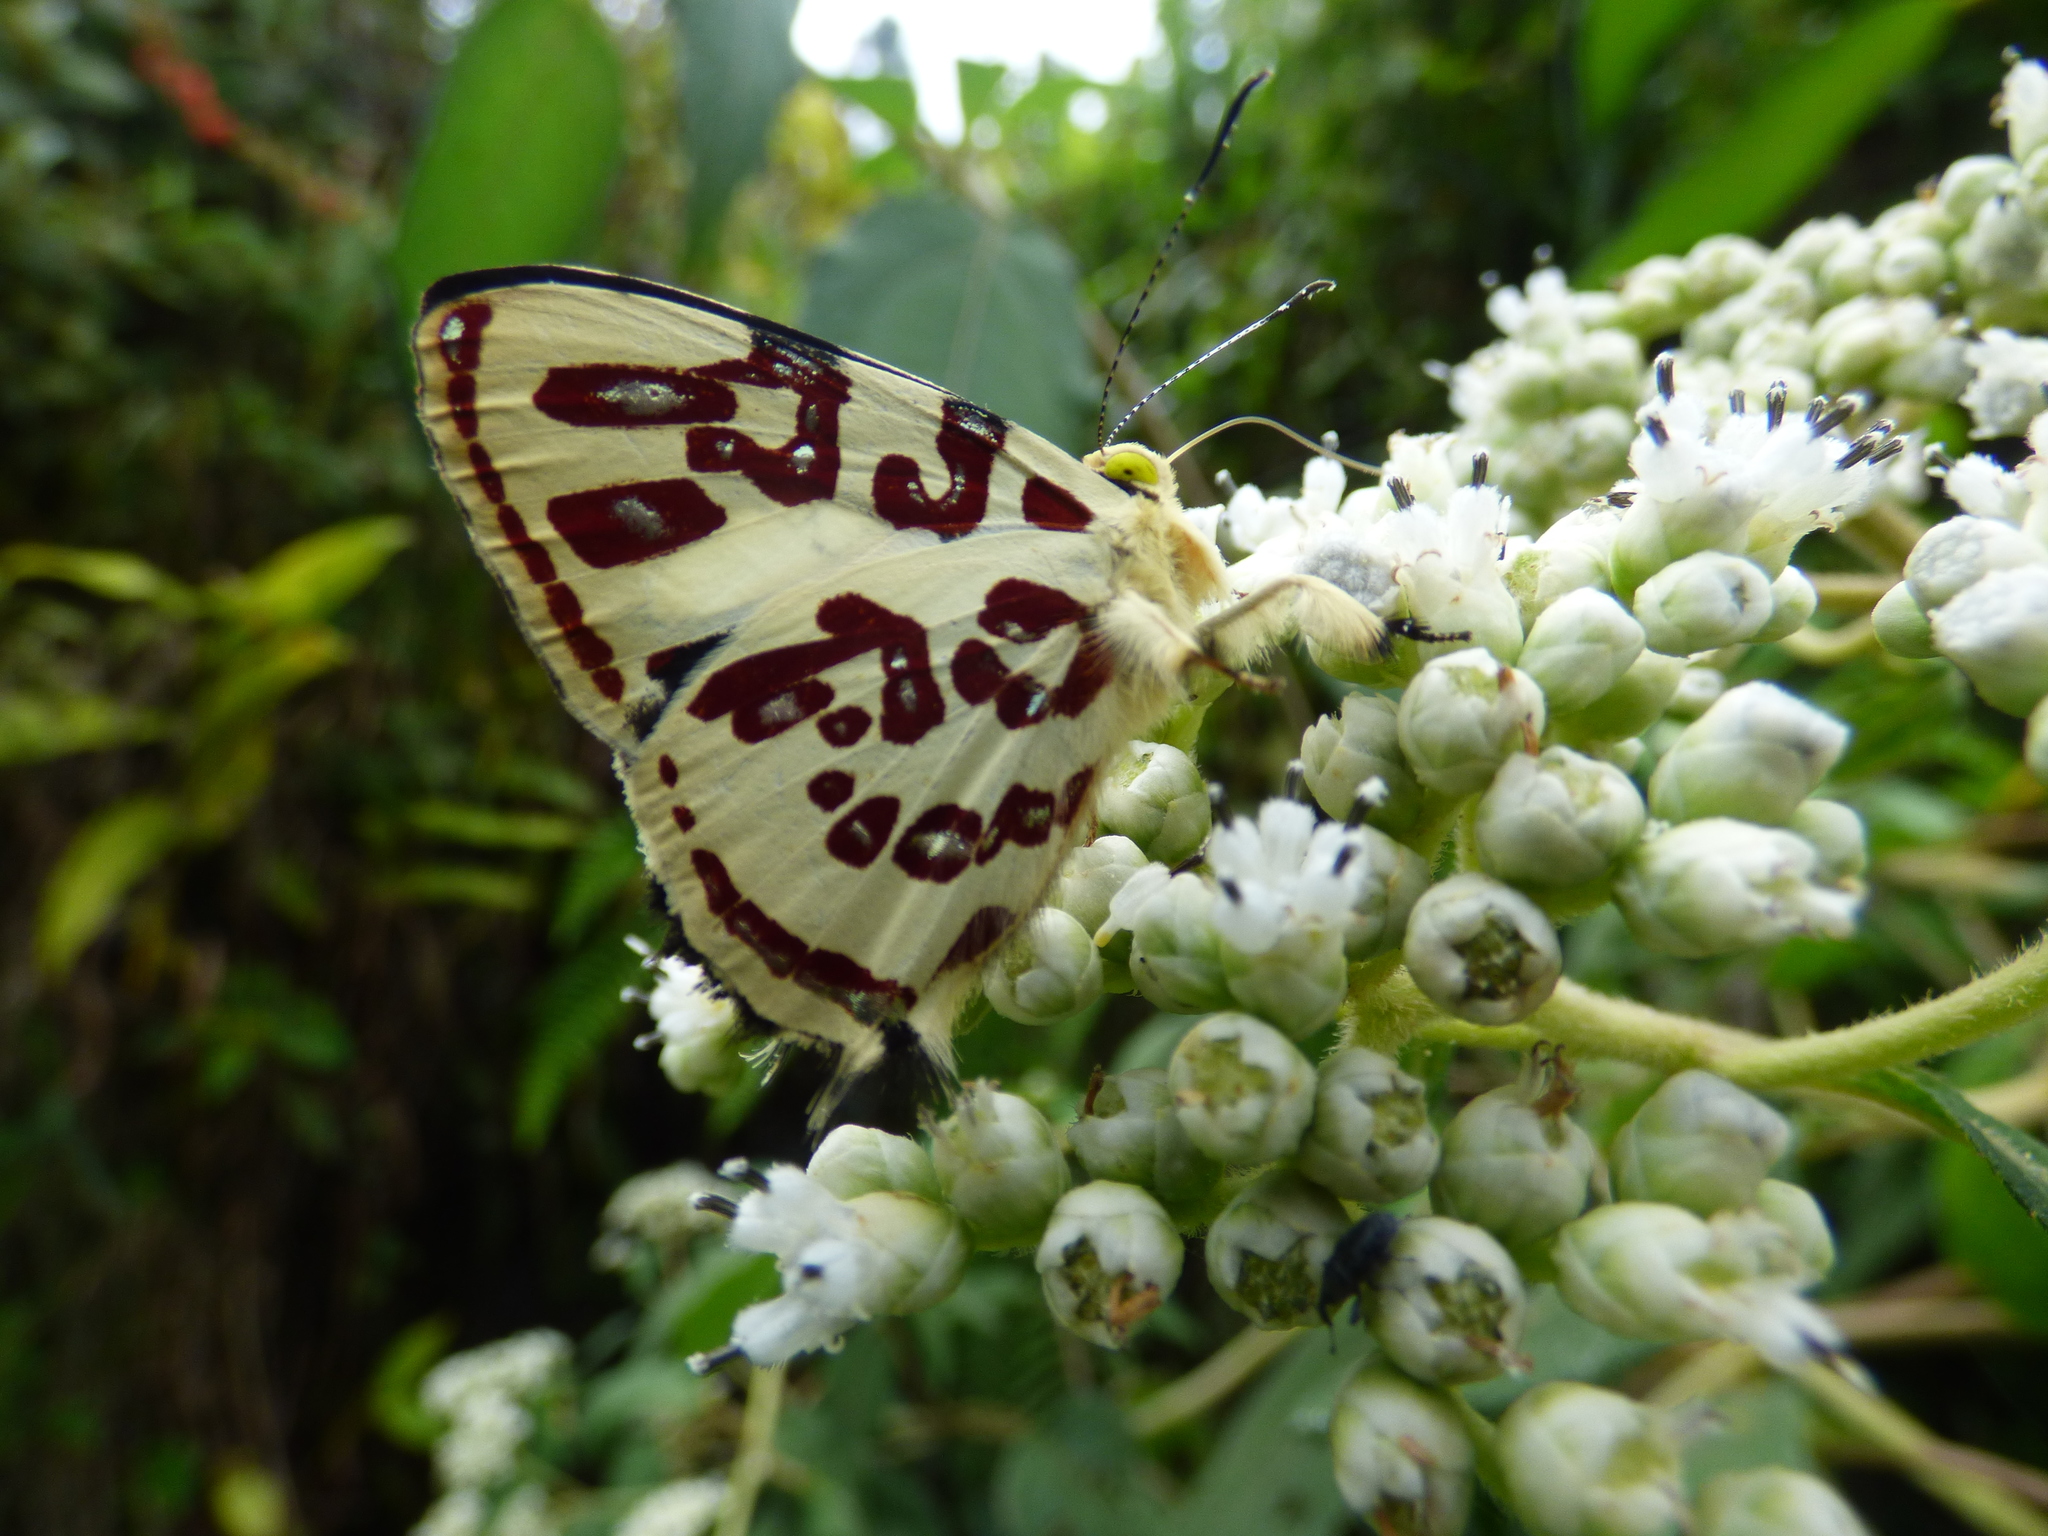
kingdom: Animalia
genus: Anteros
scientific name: Anteros kupris
